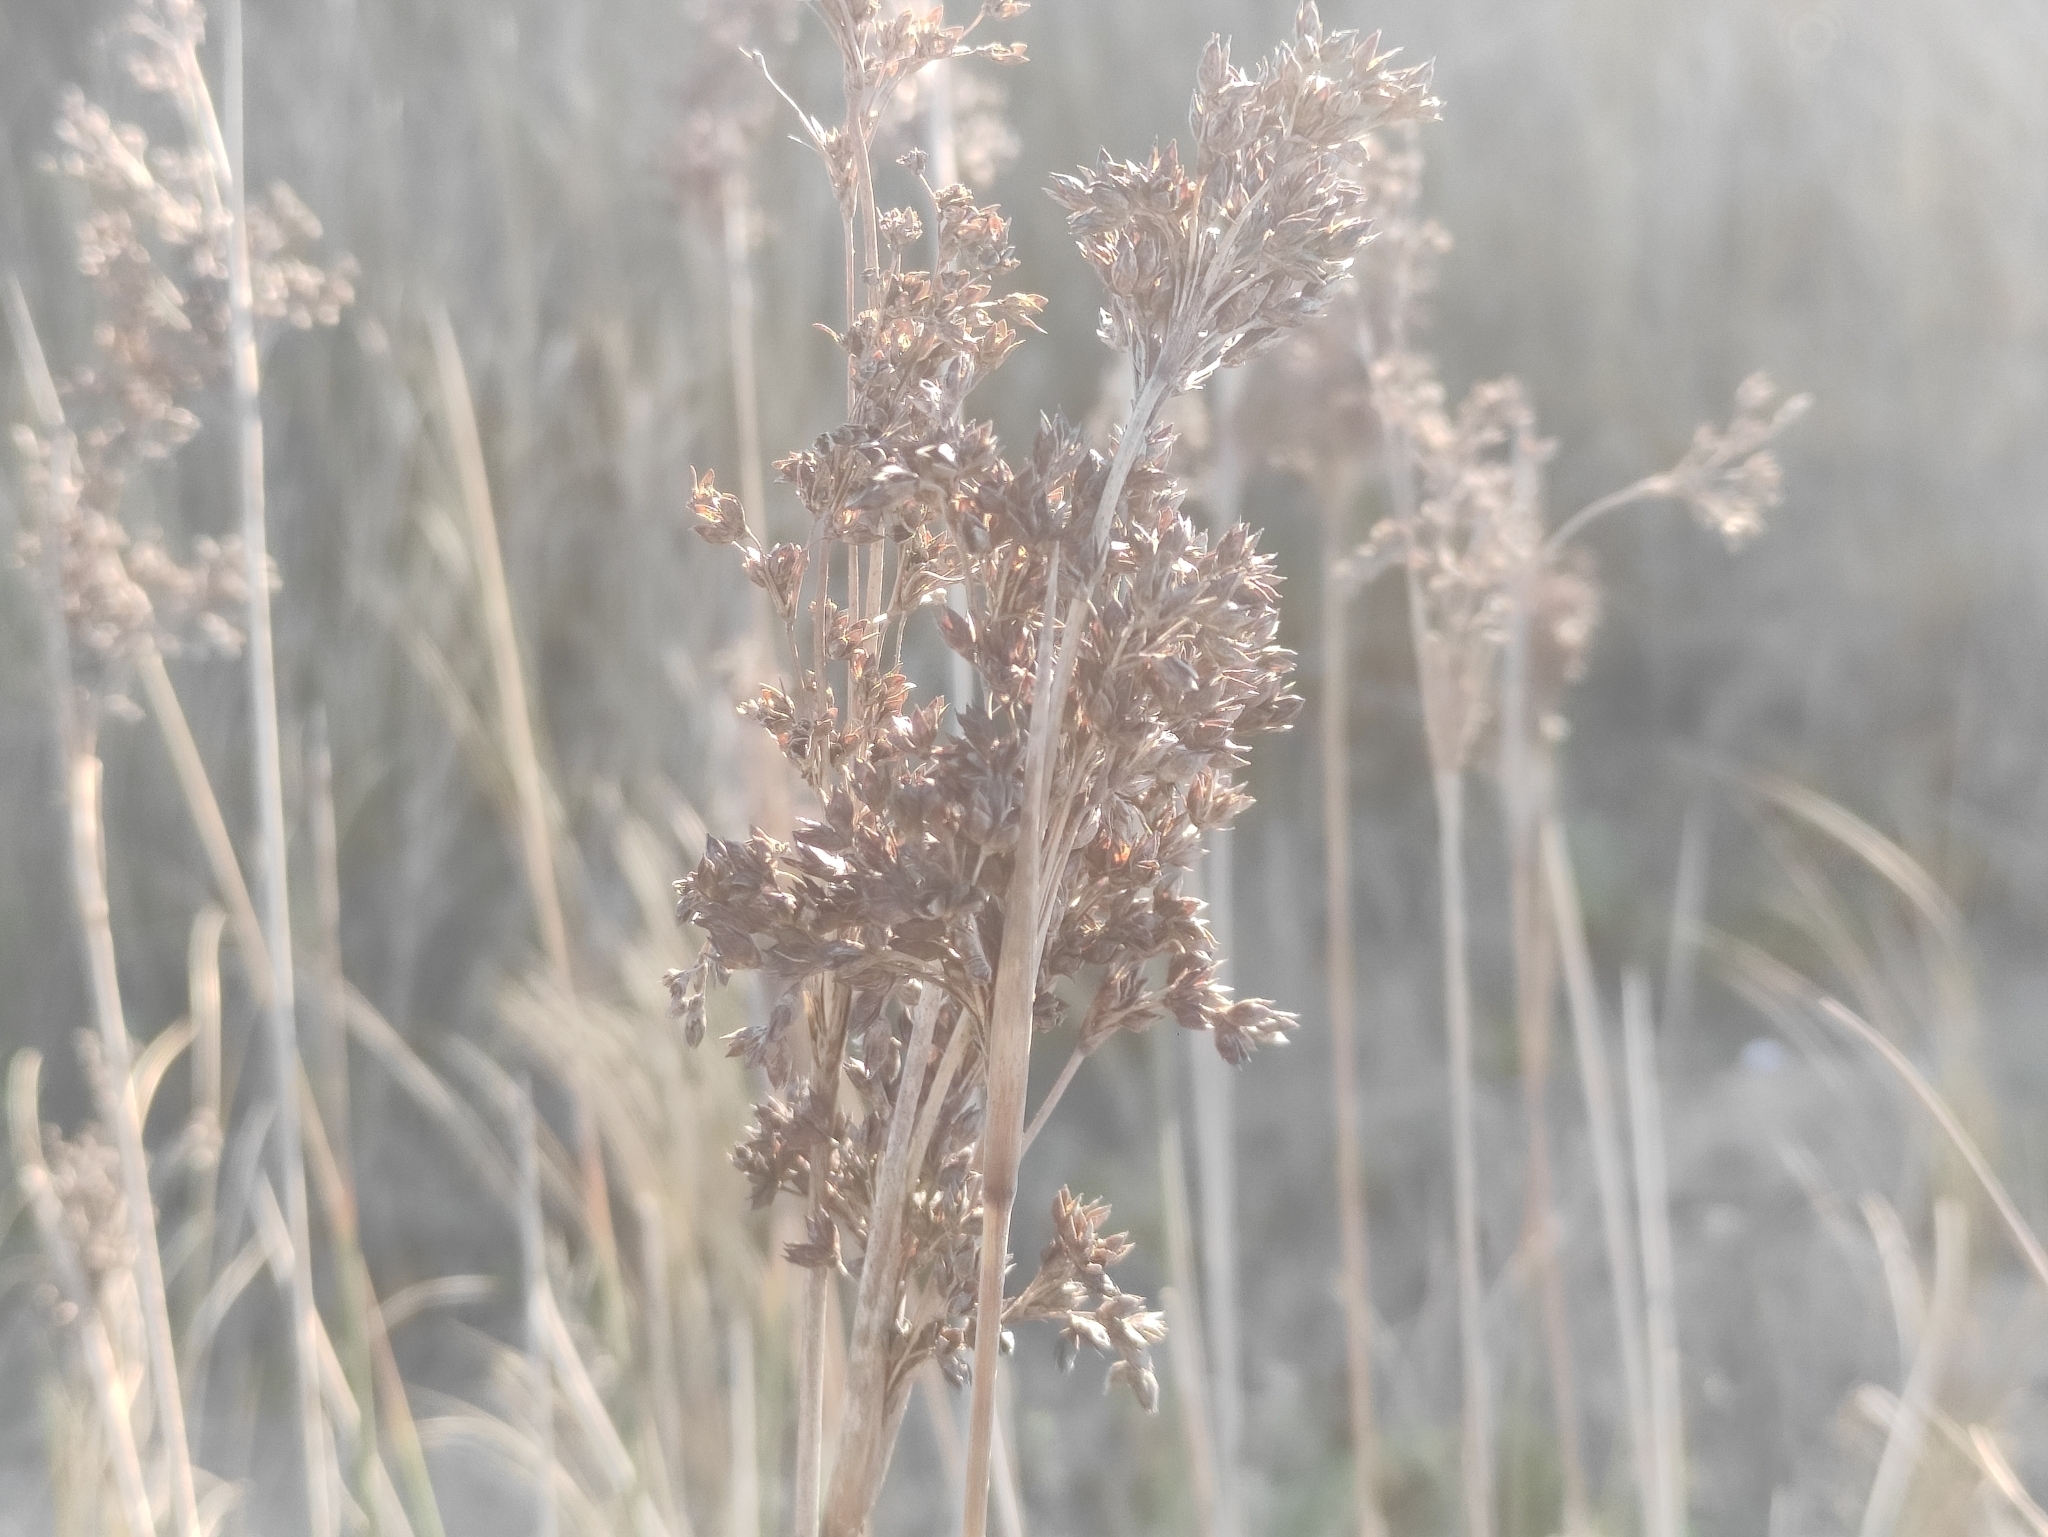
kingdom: Plantae
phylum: Tracheophyta
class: Liliopsida
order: Poales
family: Juncaceae
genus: Juncus
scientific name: Juncus maritimus
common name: Sea rush
